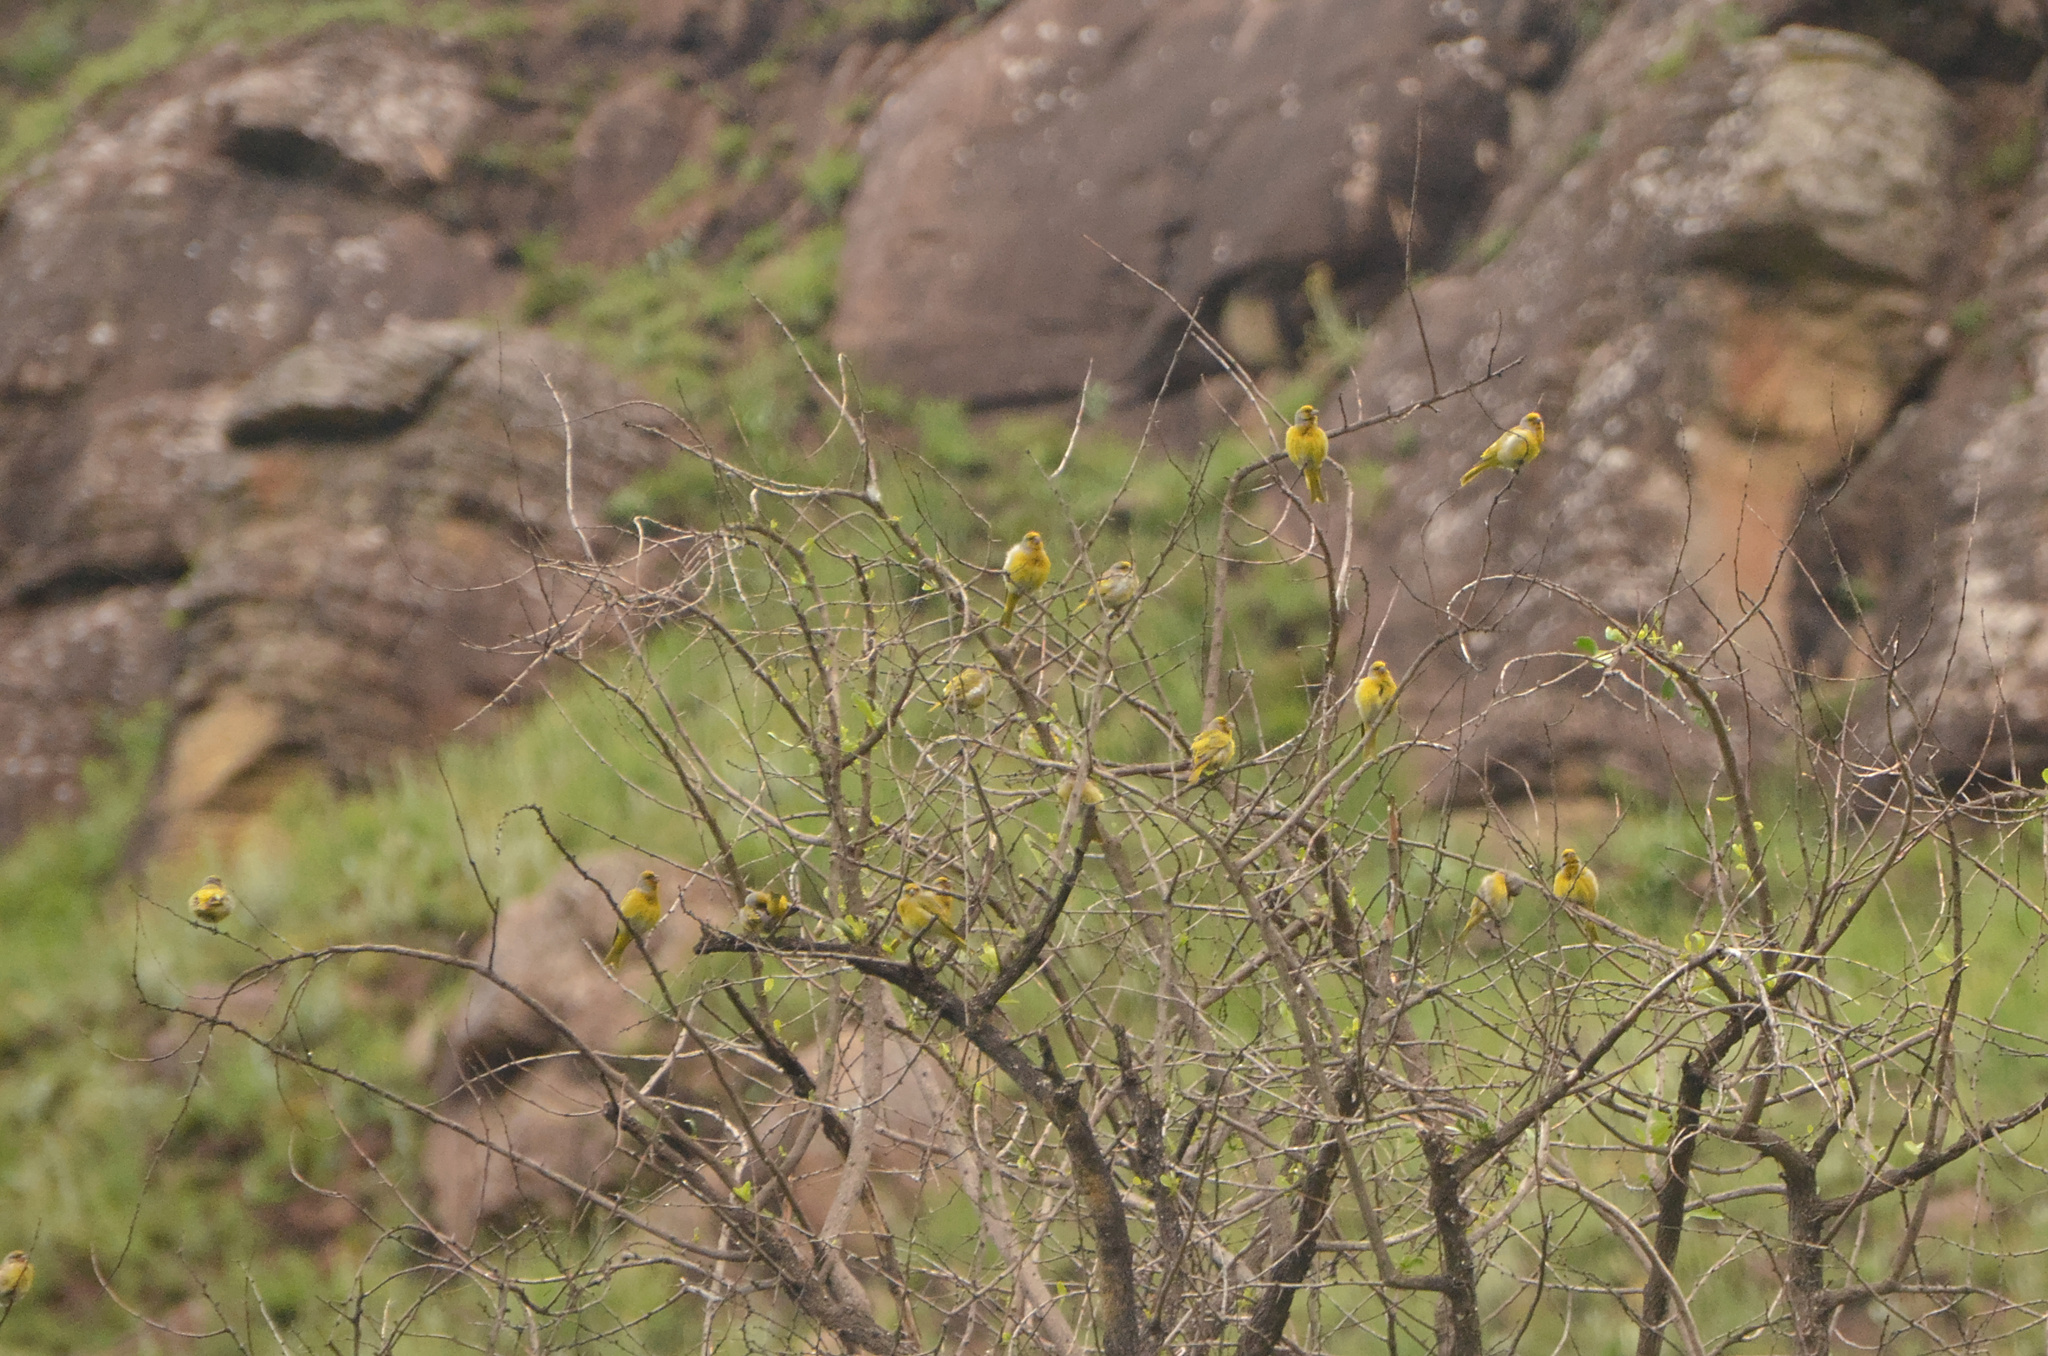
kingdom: Animalia
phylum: Chordata
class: Aves
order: Passeriformes
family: Fringillidae
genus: Serinus
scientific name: Serinus canicollis
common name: Cape canary
